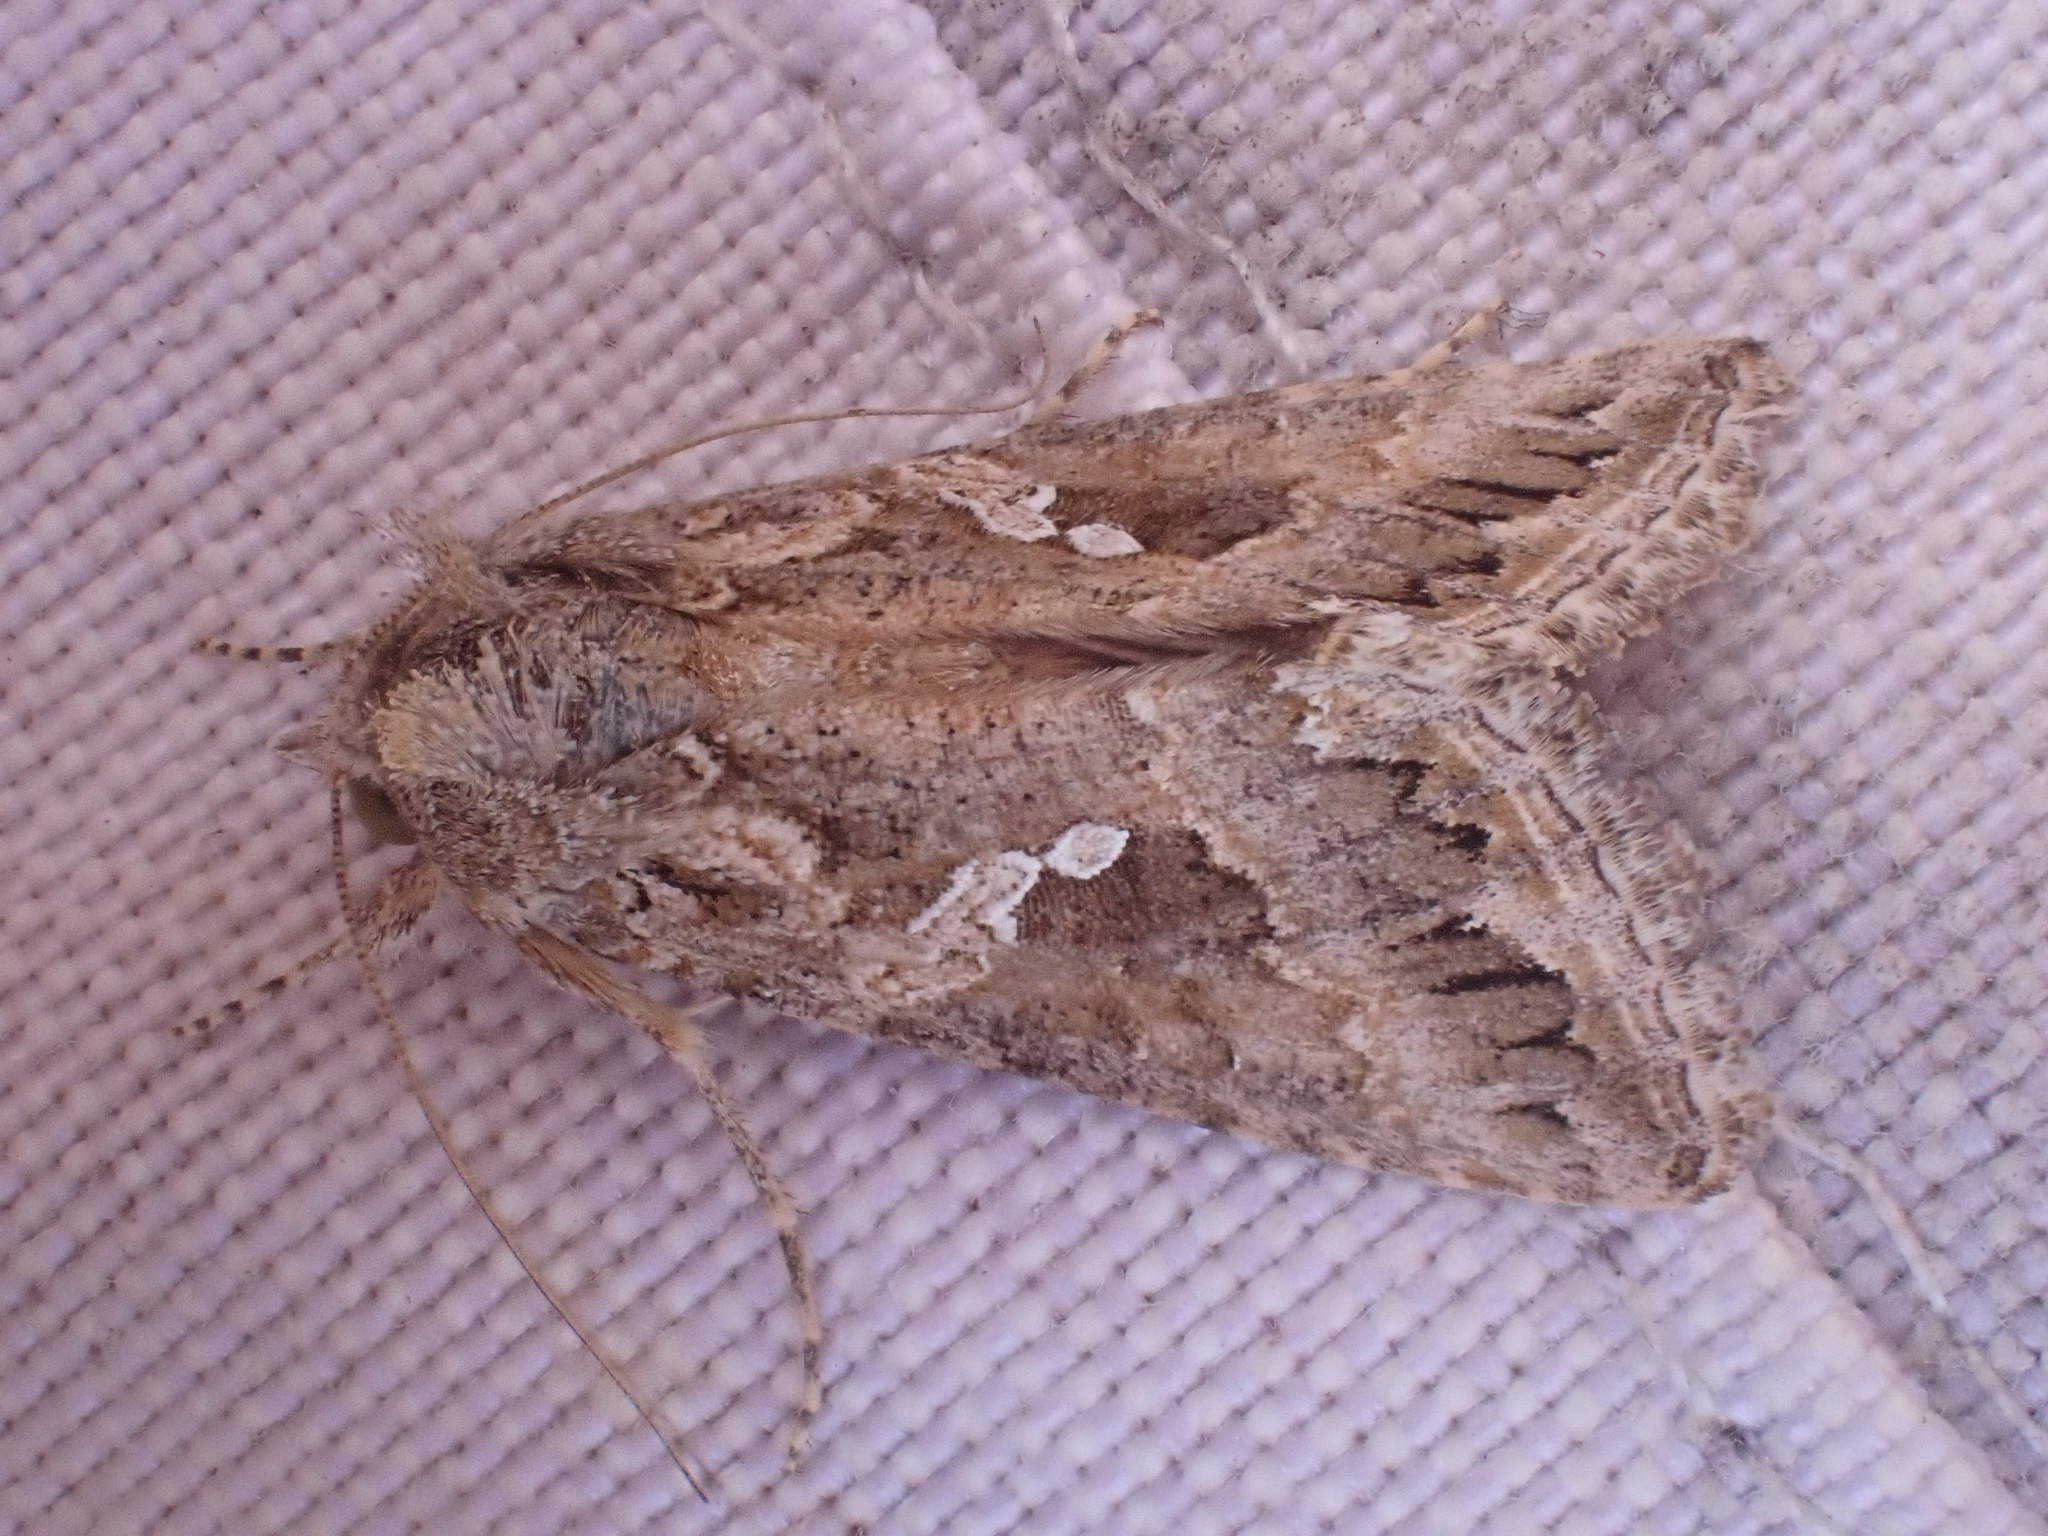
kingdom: Animalia
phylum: Arthropoda
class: Insecta
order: Lepidoptera
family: Noctuidae
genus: Trichoplusia
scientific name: Trichoplusia ni
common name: Ni moth
